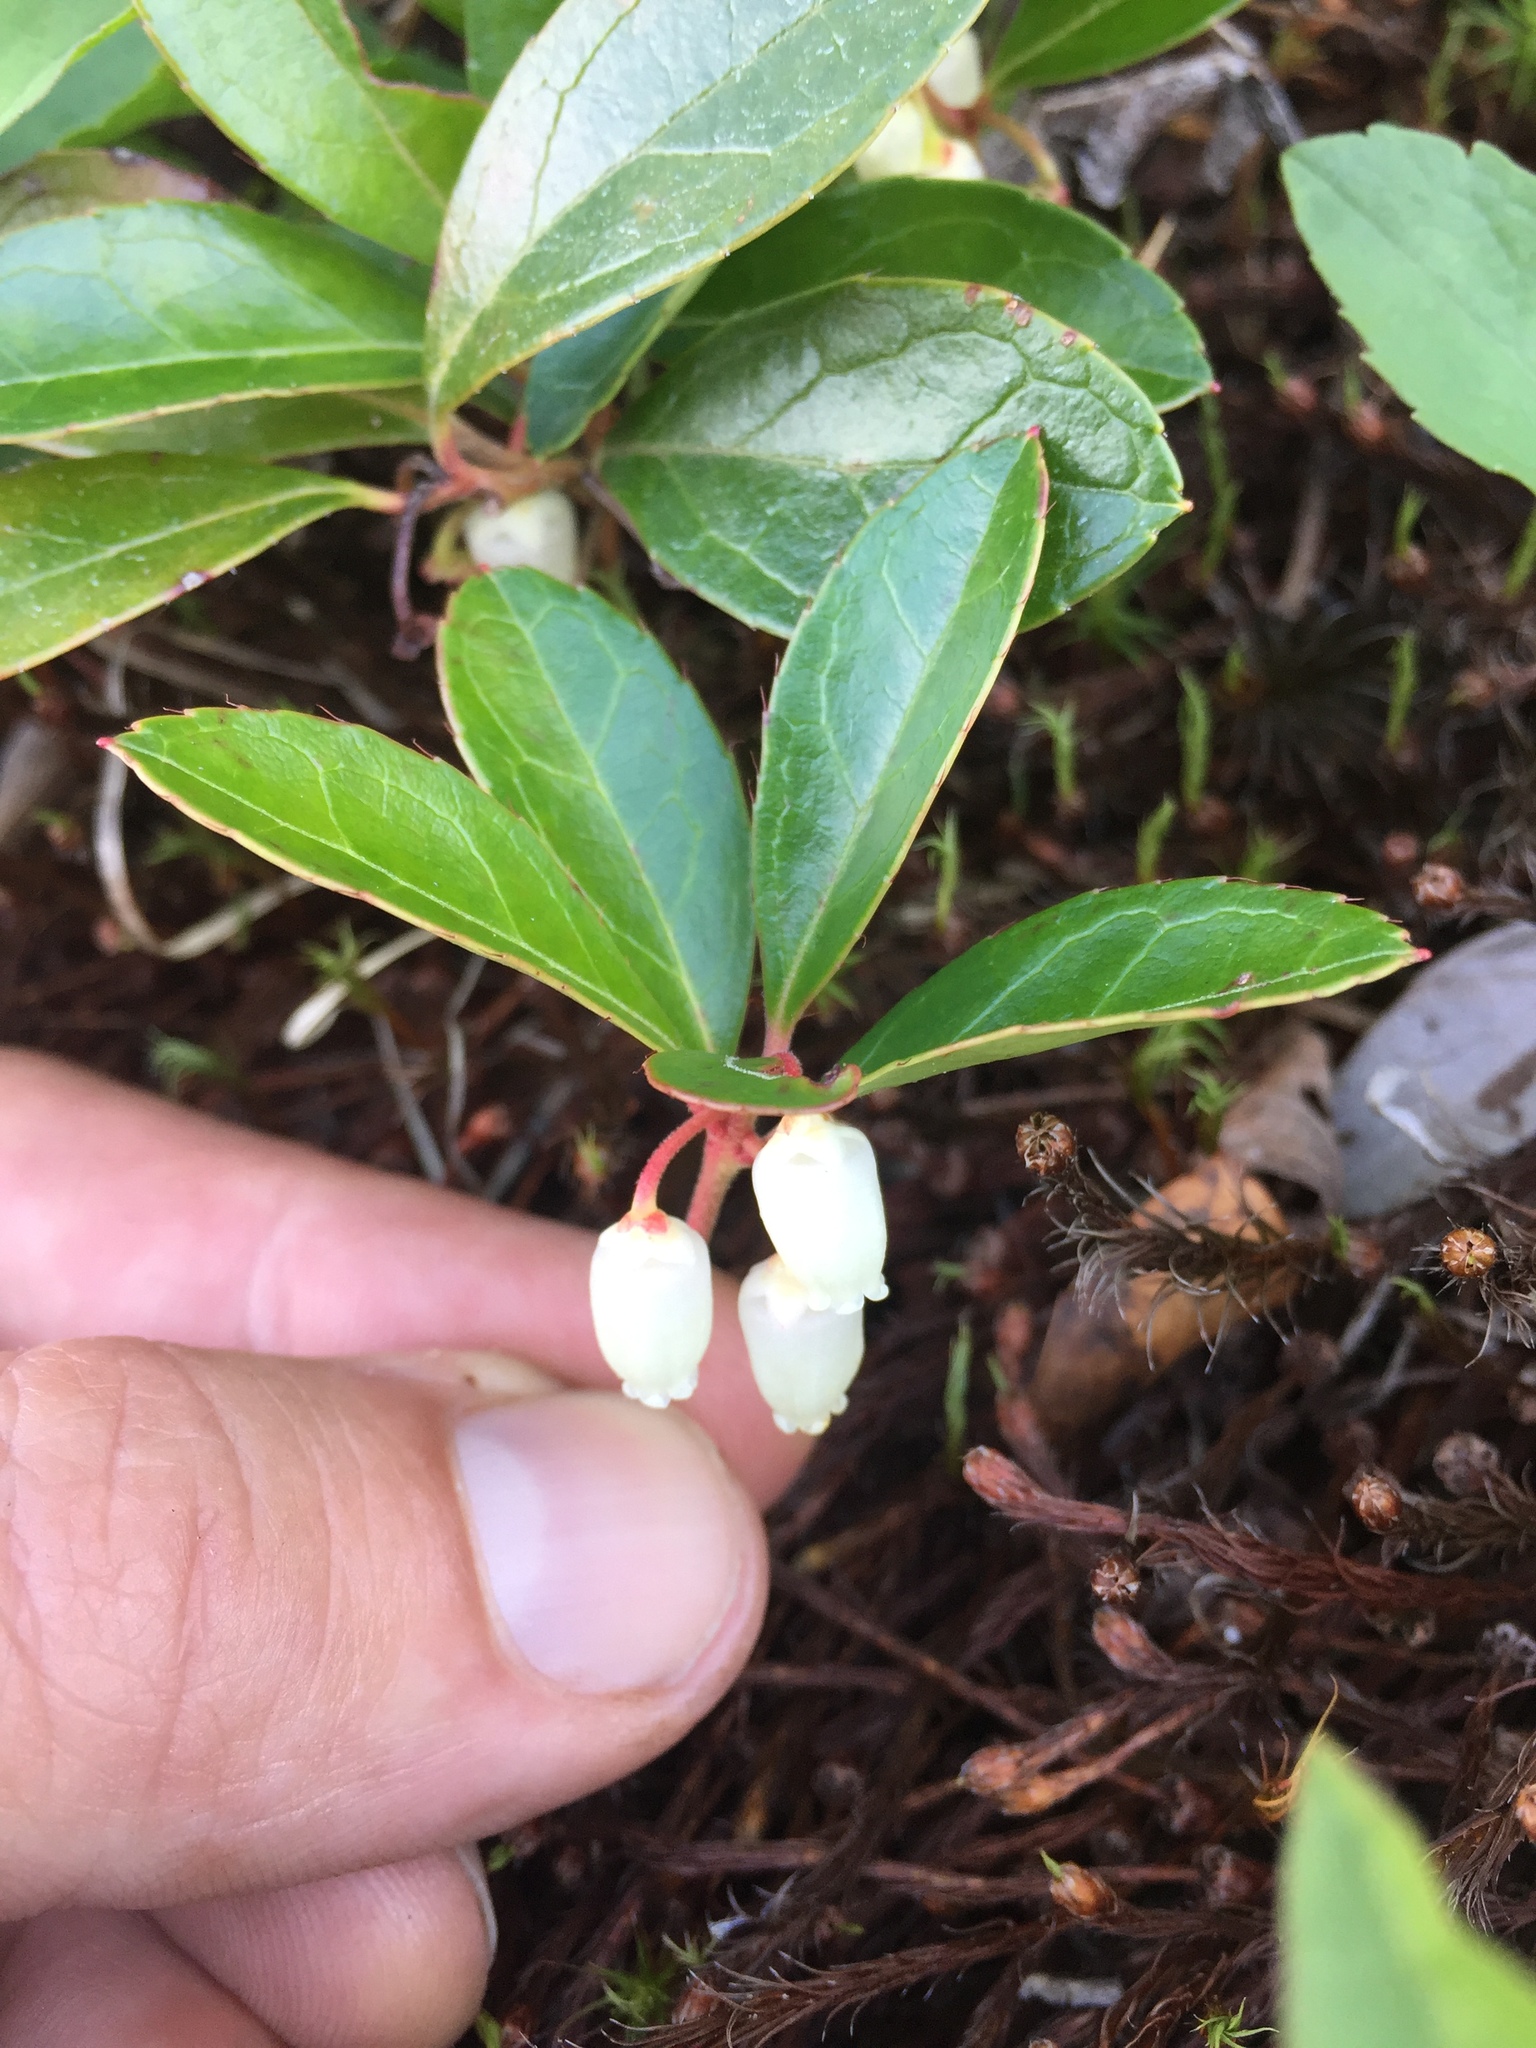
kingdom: Plantae
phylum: Tracheophyta
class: Magnoliopsida
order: Ericales
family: Ericaceae
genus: Gaultheria
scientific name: Gaultheria procumbens
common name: Checkerberry
